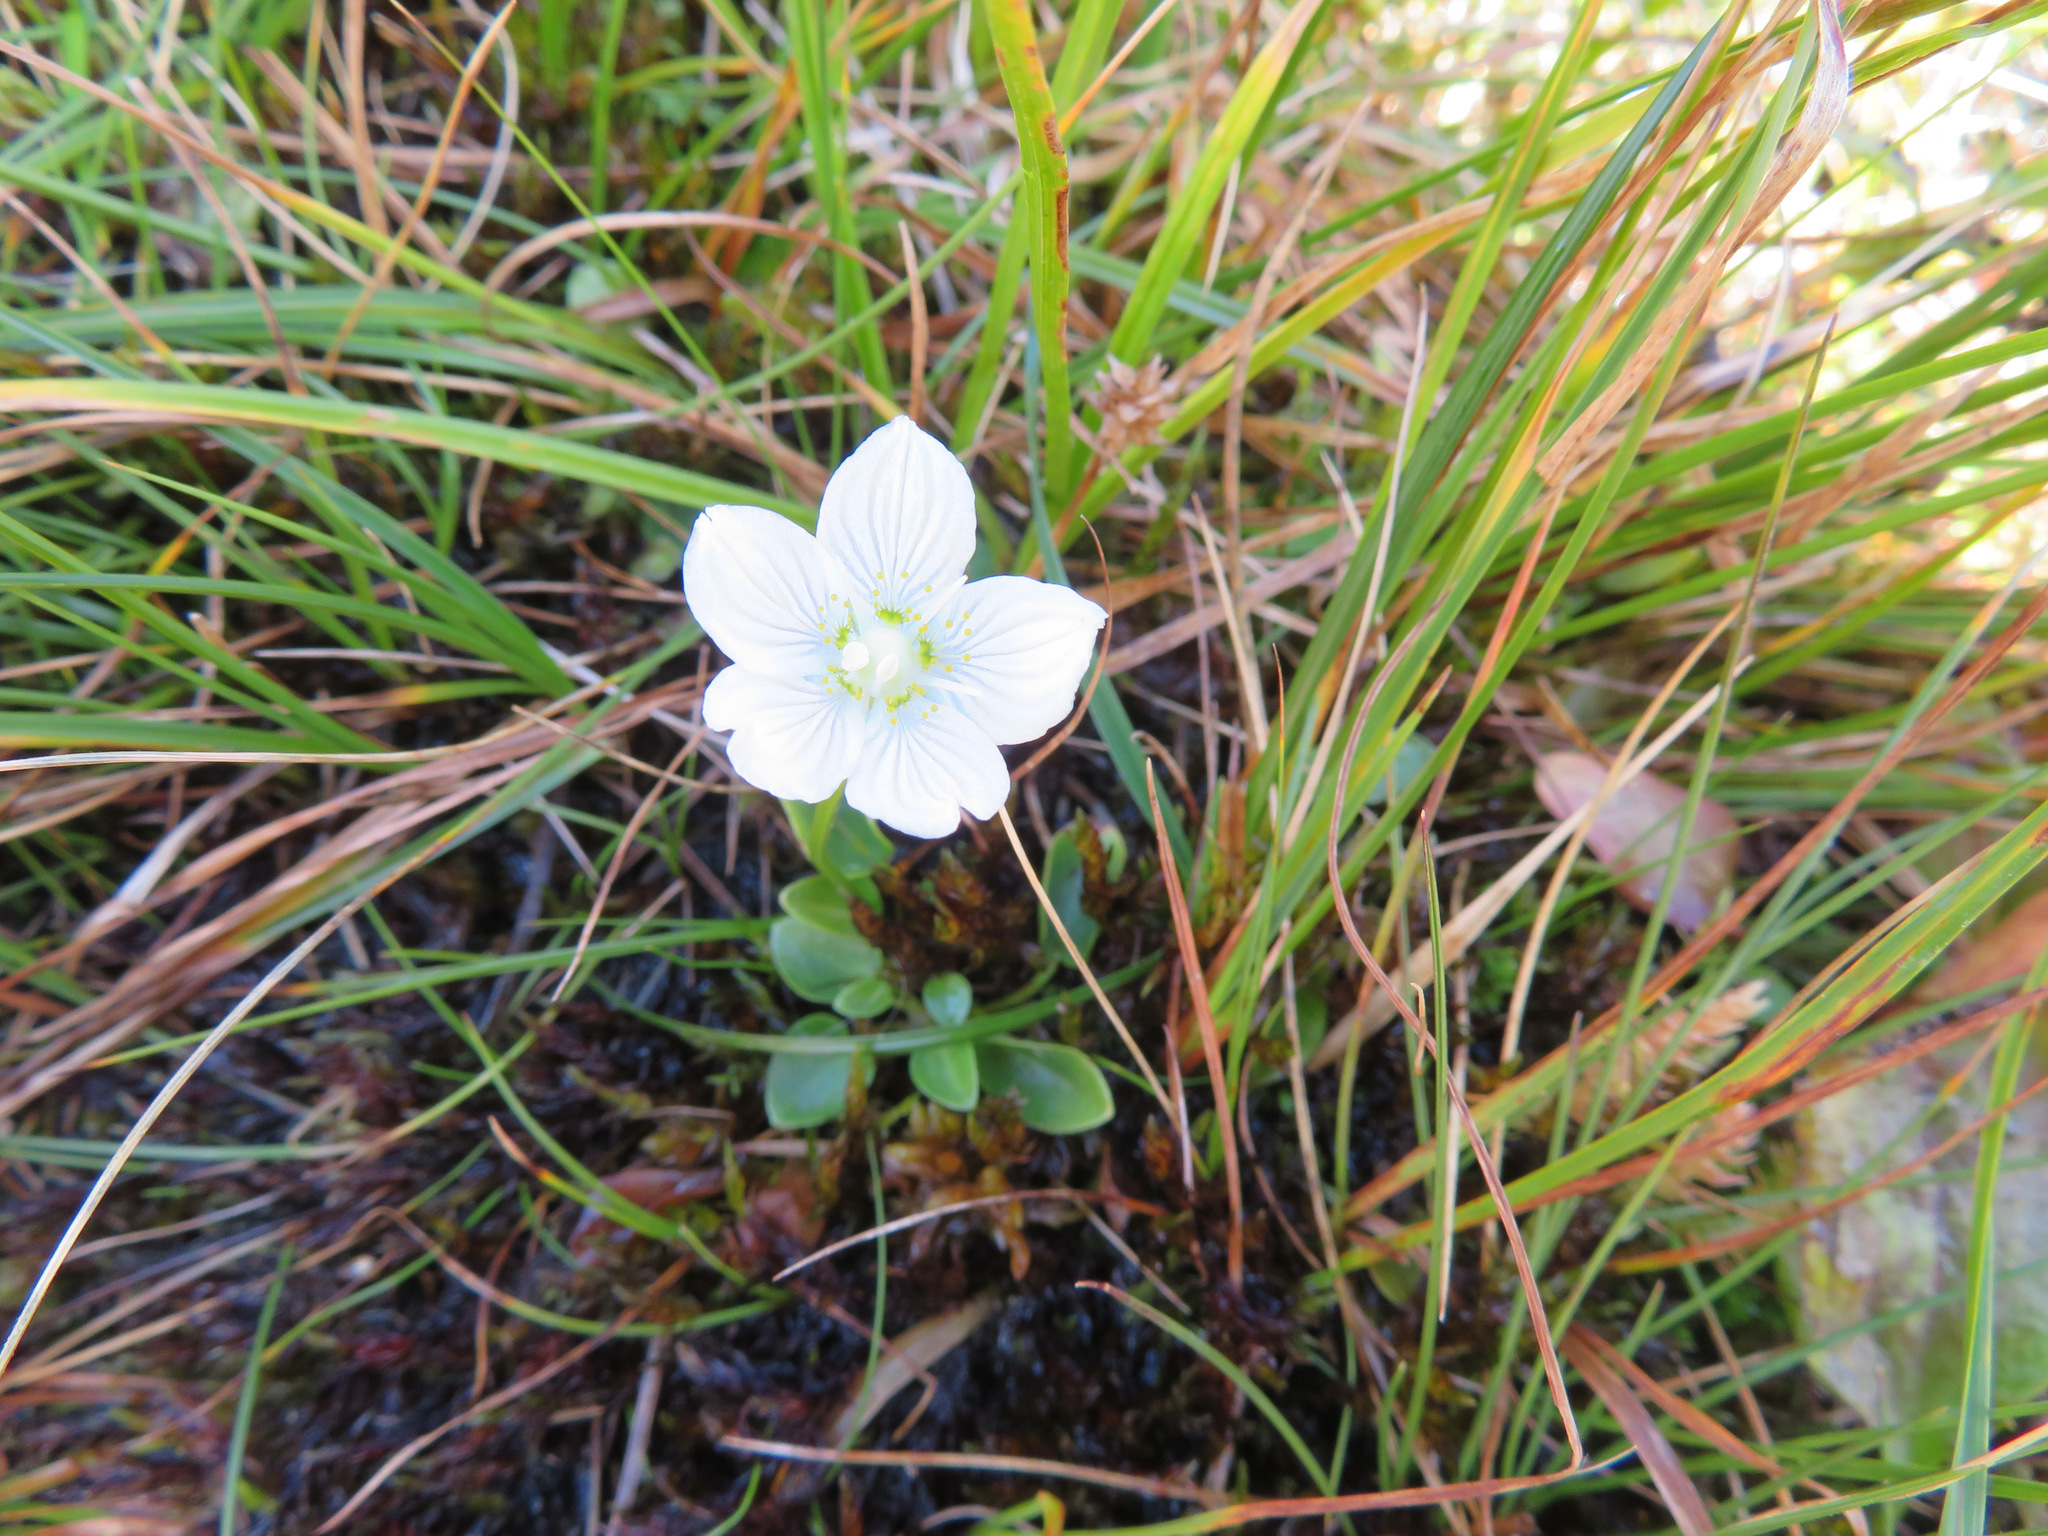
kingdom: Plantae
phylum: Tracheophyta
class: Magnoliopsida
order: Celastrales
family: Parnassiaceae
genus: Parnassia
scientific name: Parnassia palustris
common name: Grass-of-parnassus
